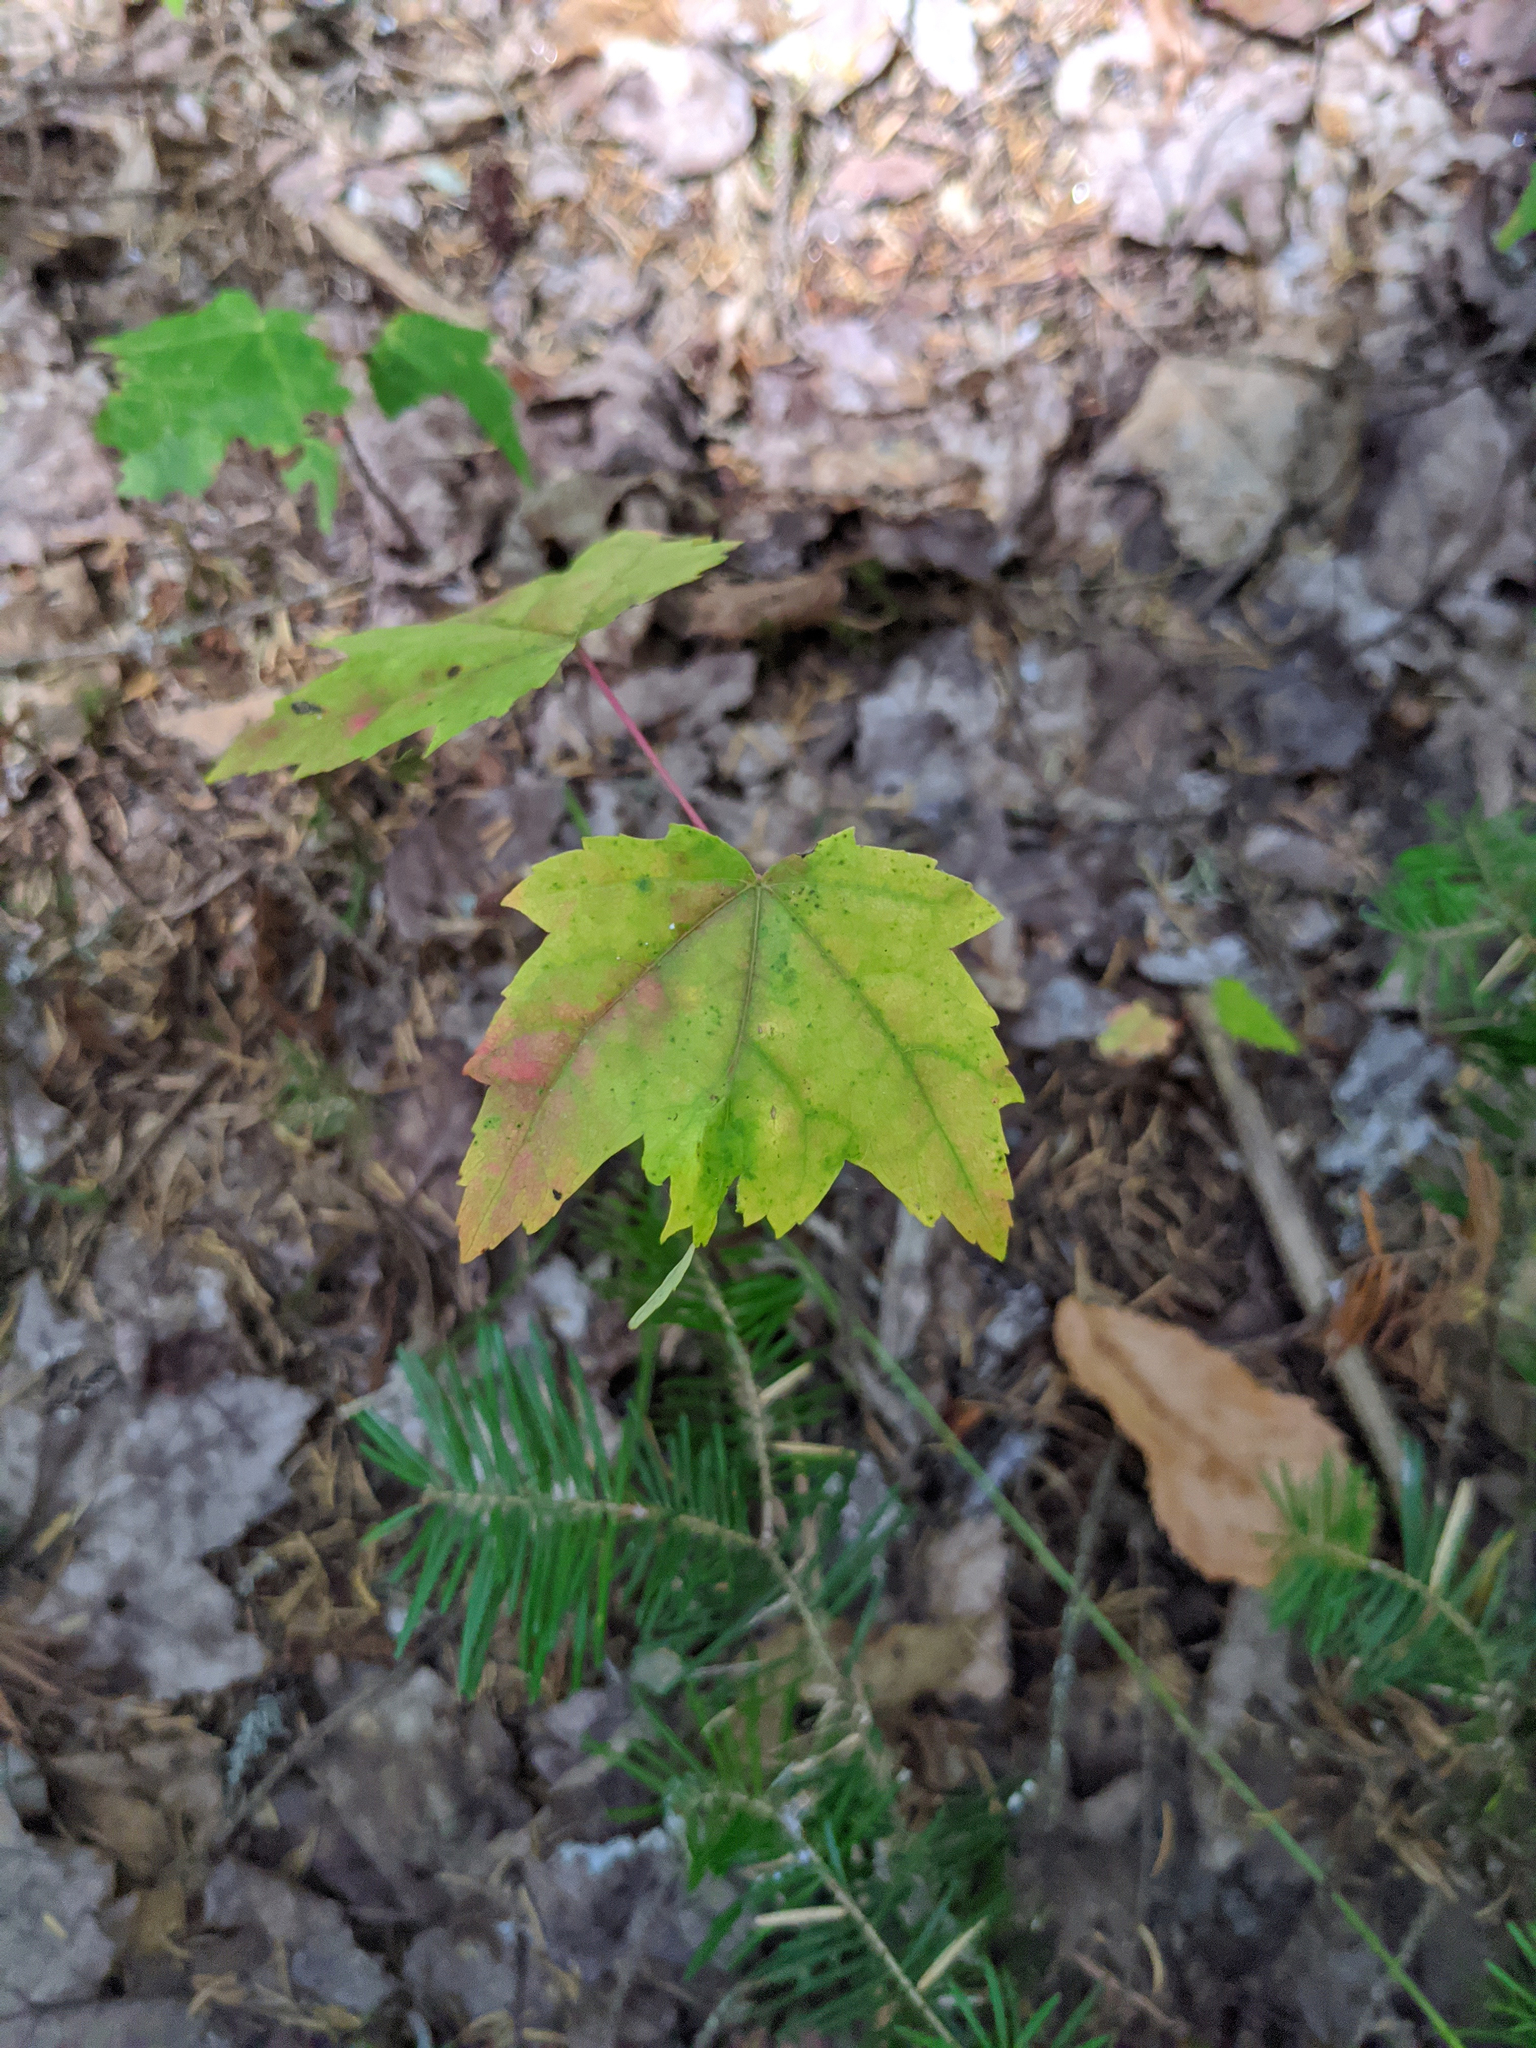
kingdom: Plantae
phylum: Tracheophyta
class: Magnoliopsida
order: Sapindales
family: Sapindaceae
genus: Acer
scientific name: Acer rubrum
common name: Red maple
